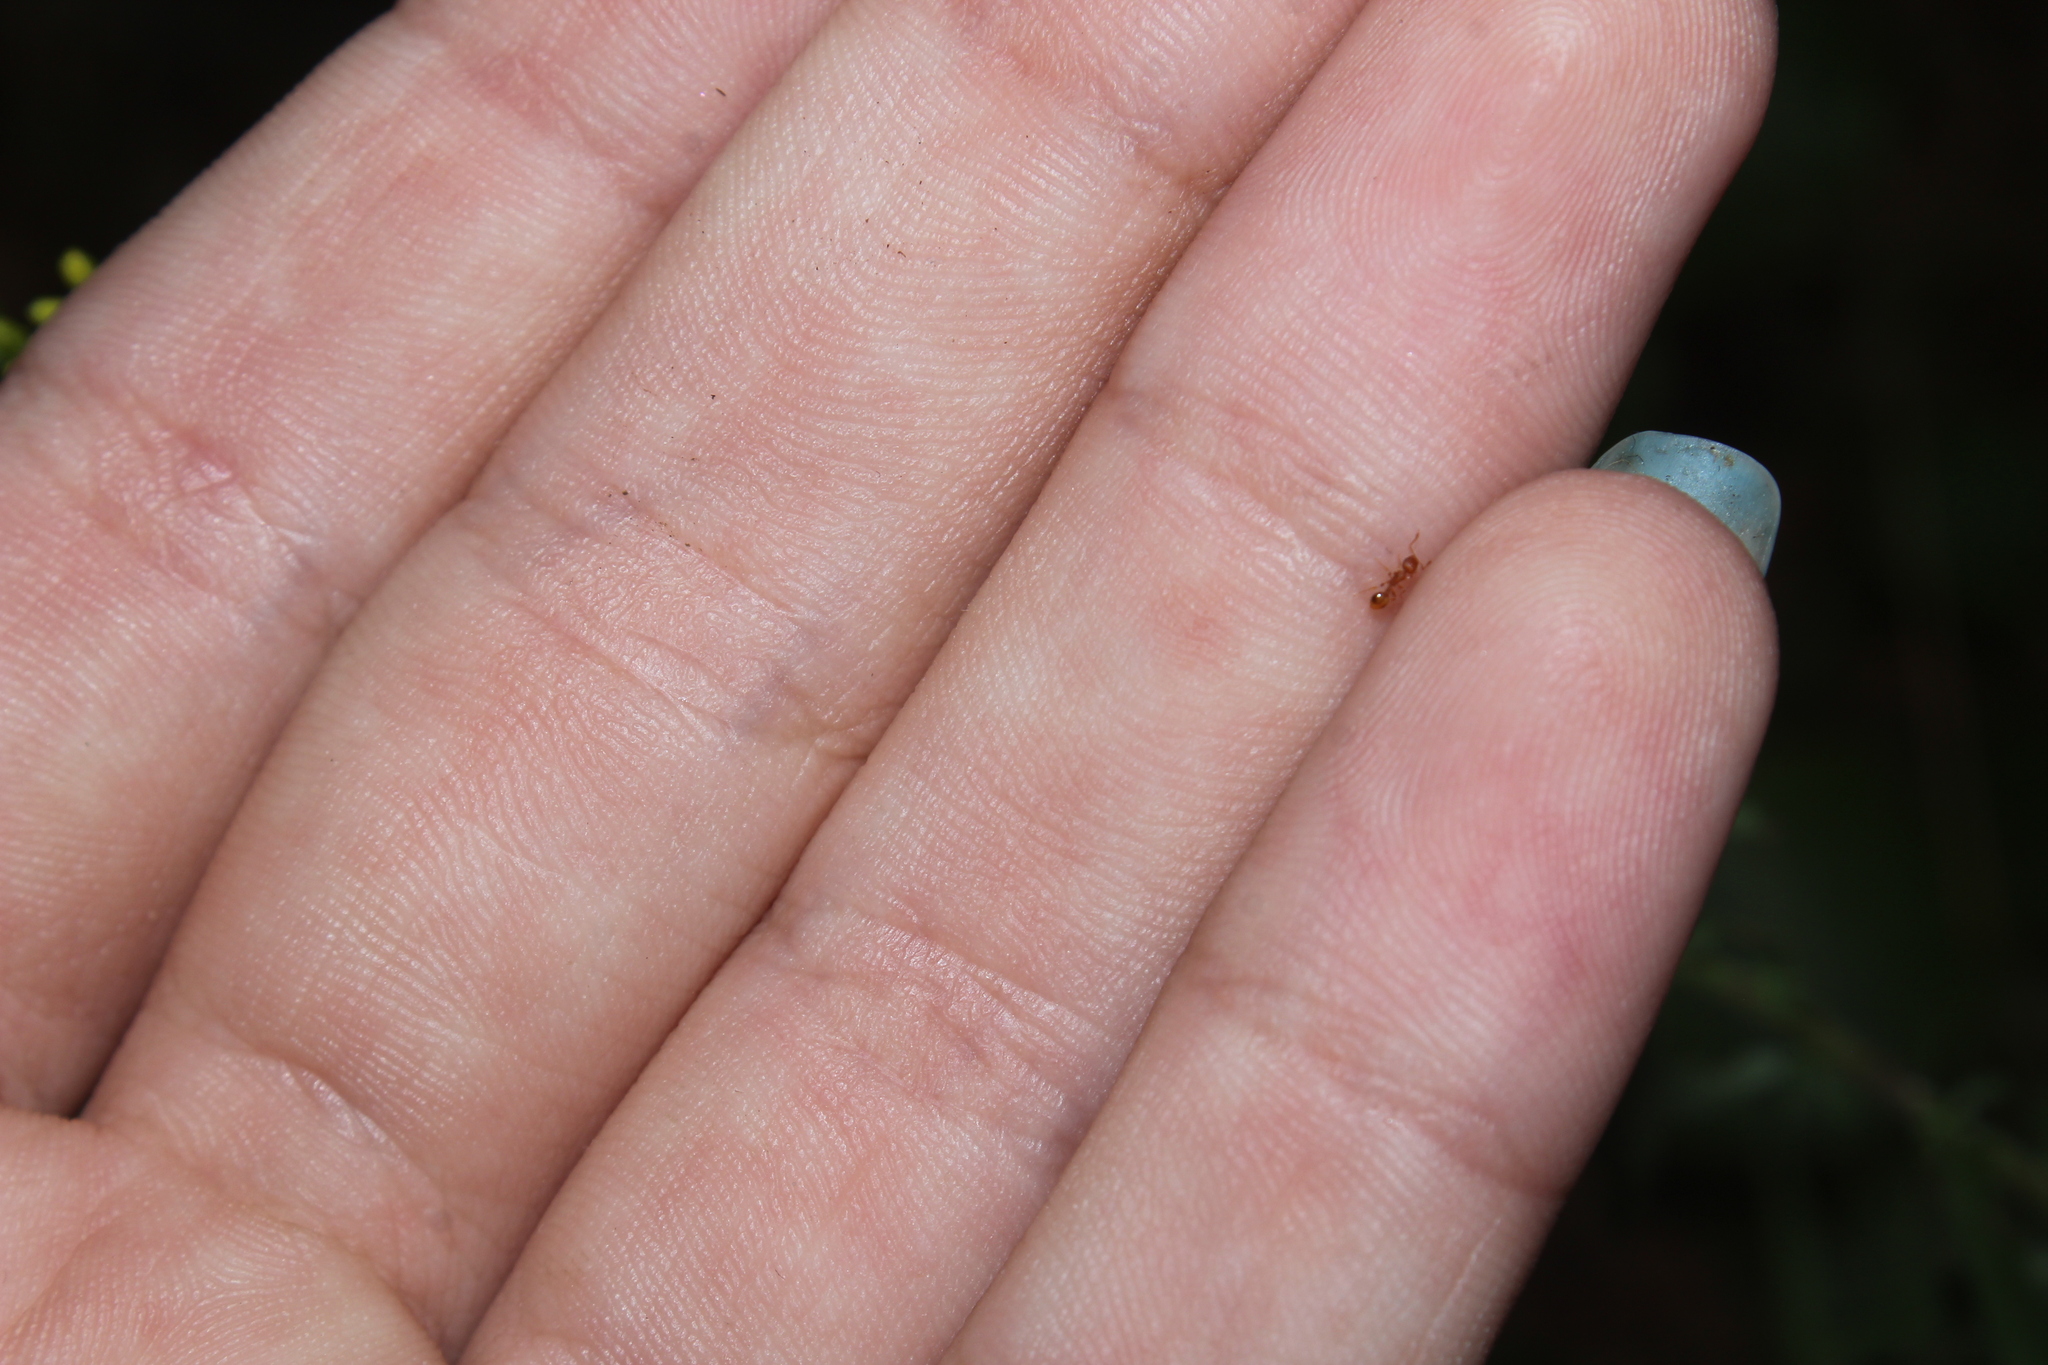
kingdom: Animalia
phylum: Arthropoda
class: Insecta
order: Hymenoptera
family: Formicidae
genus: Temnothorax
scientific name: Temnothorax
